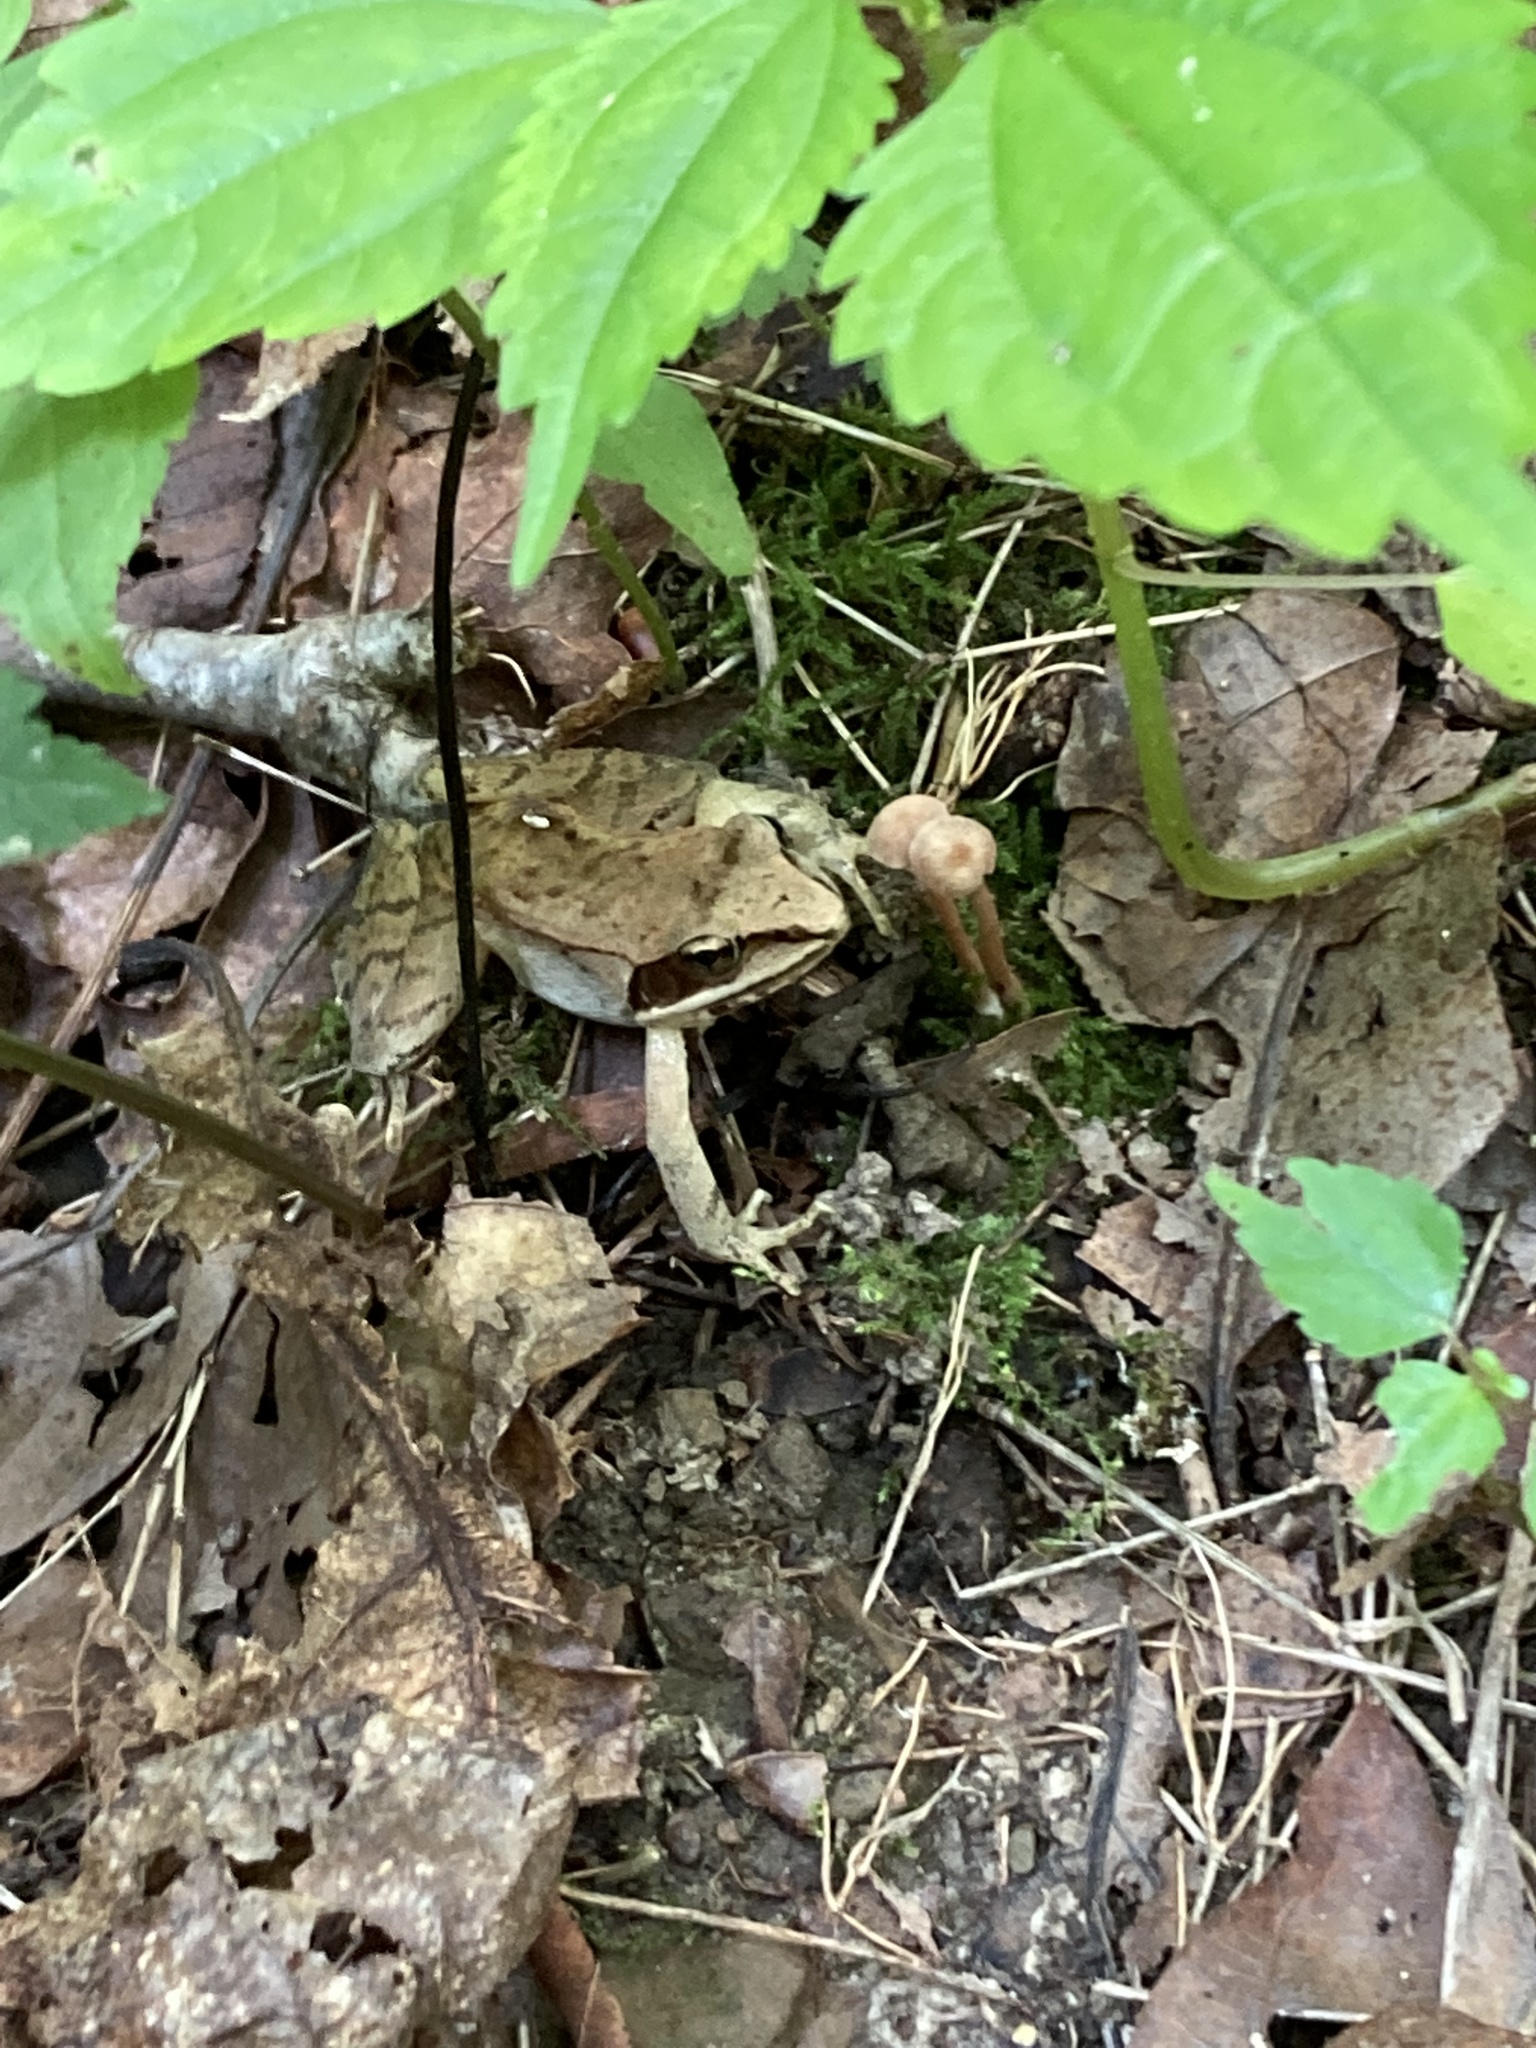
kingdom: Animalia
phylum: Chordata
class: Amphibia
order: Anura
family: Ranidae
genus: Lithobates
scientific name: Lithobates sylvaticus
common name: Wood frog
